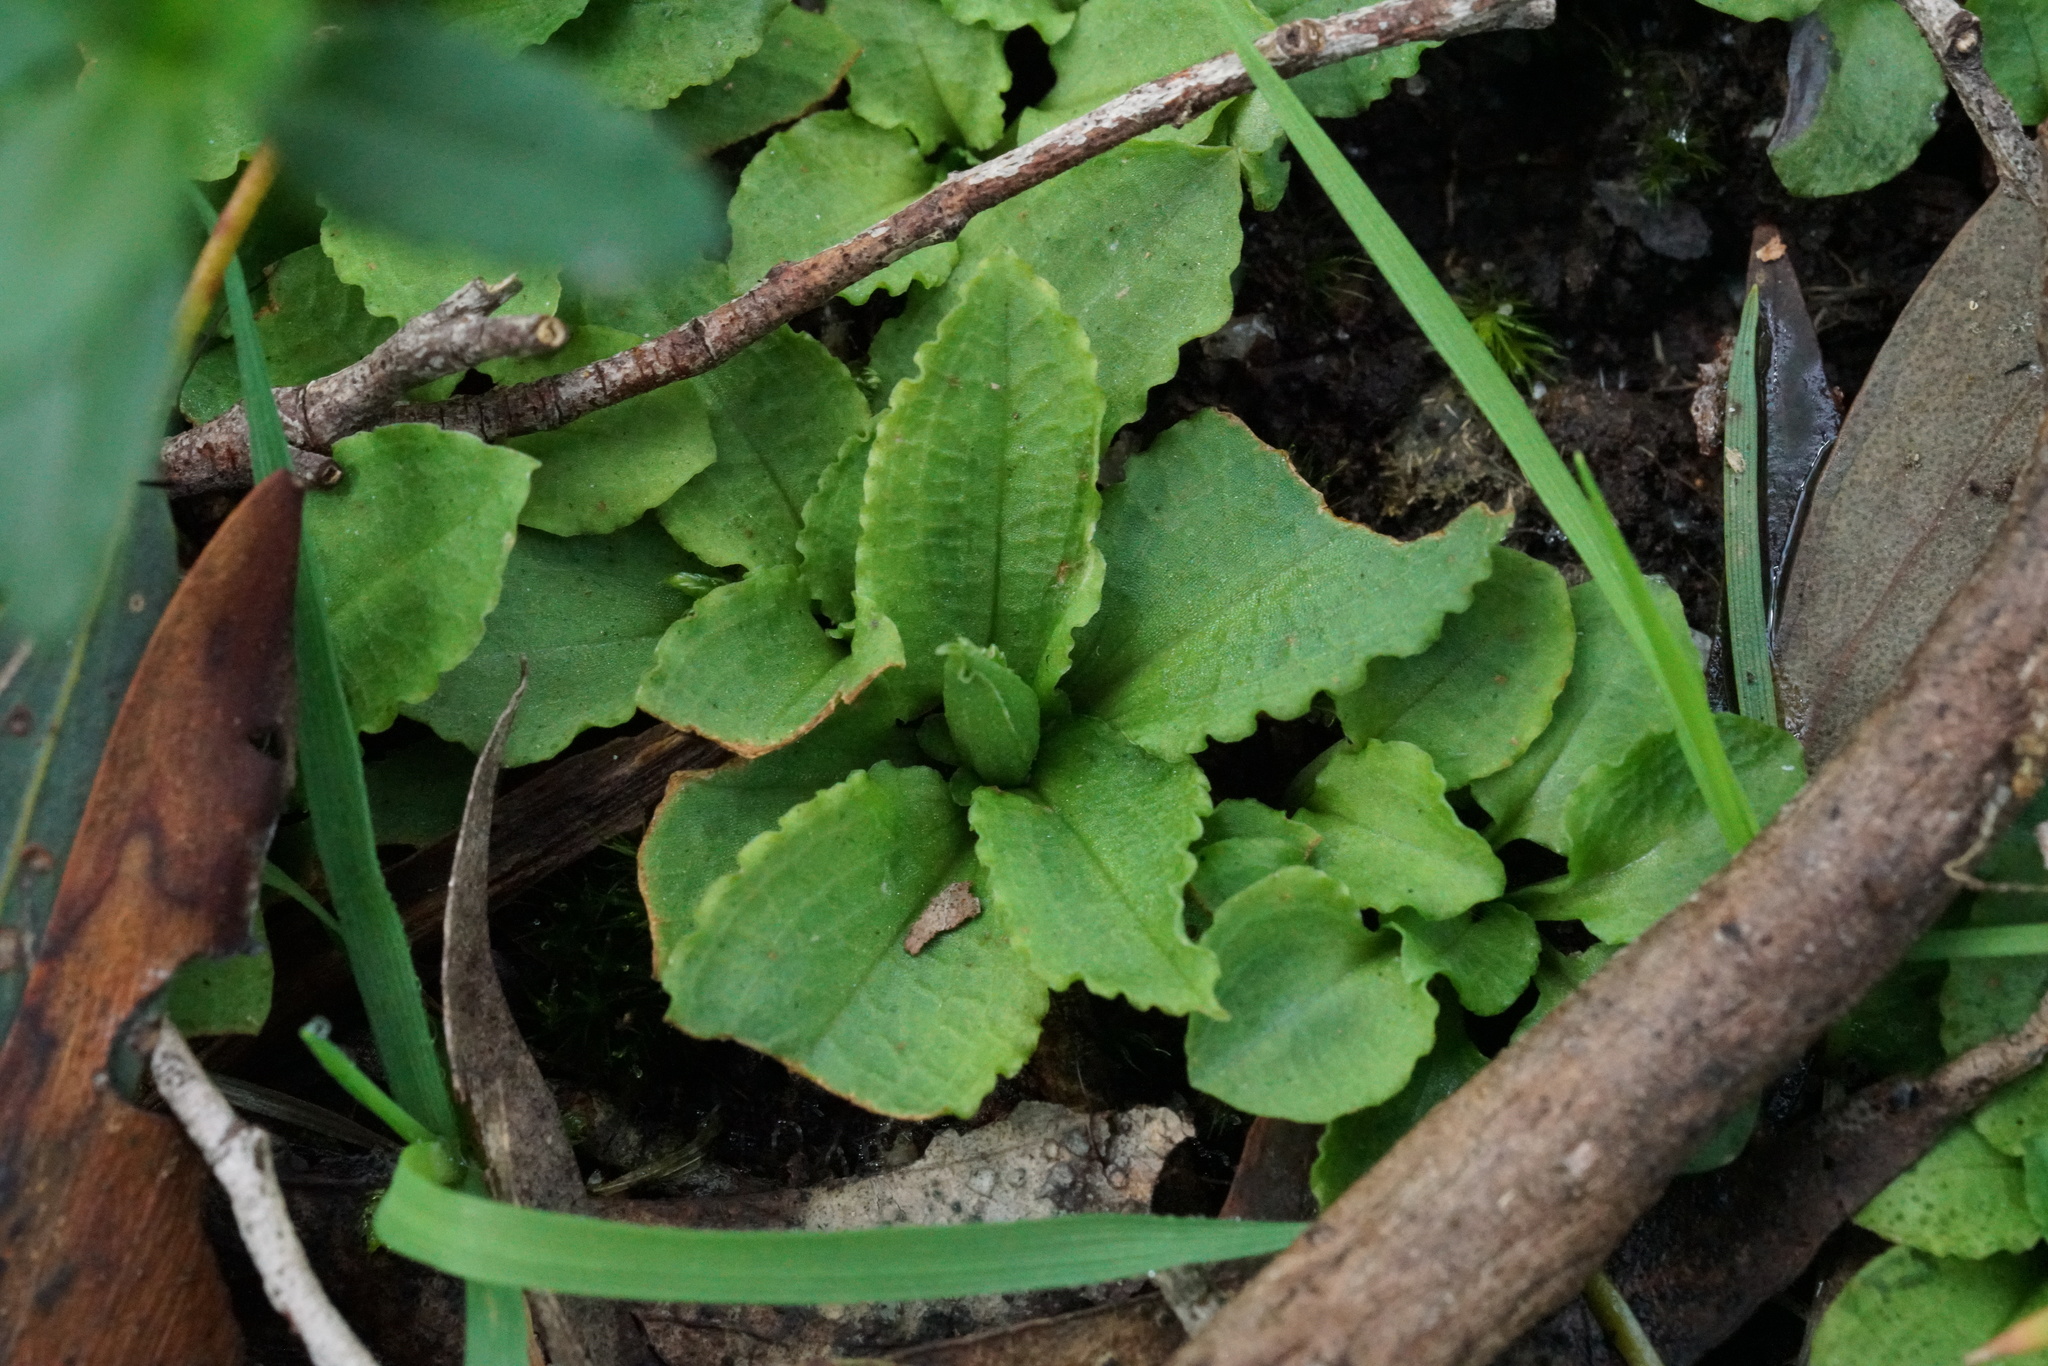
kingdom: Plantae
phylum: Tracheophyta
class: Liliopsida
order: Asparagales
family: Orchidaceae
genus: Pterostylis
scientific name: Pterostylis nutans
